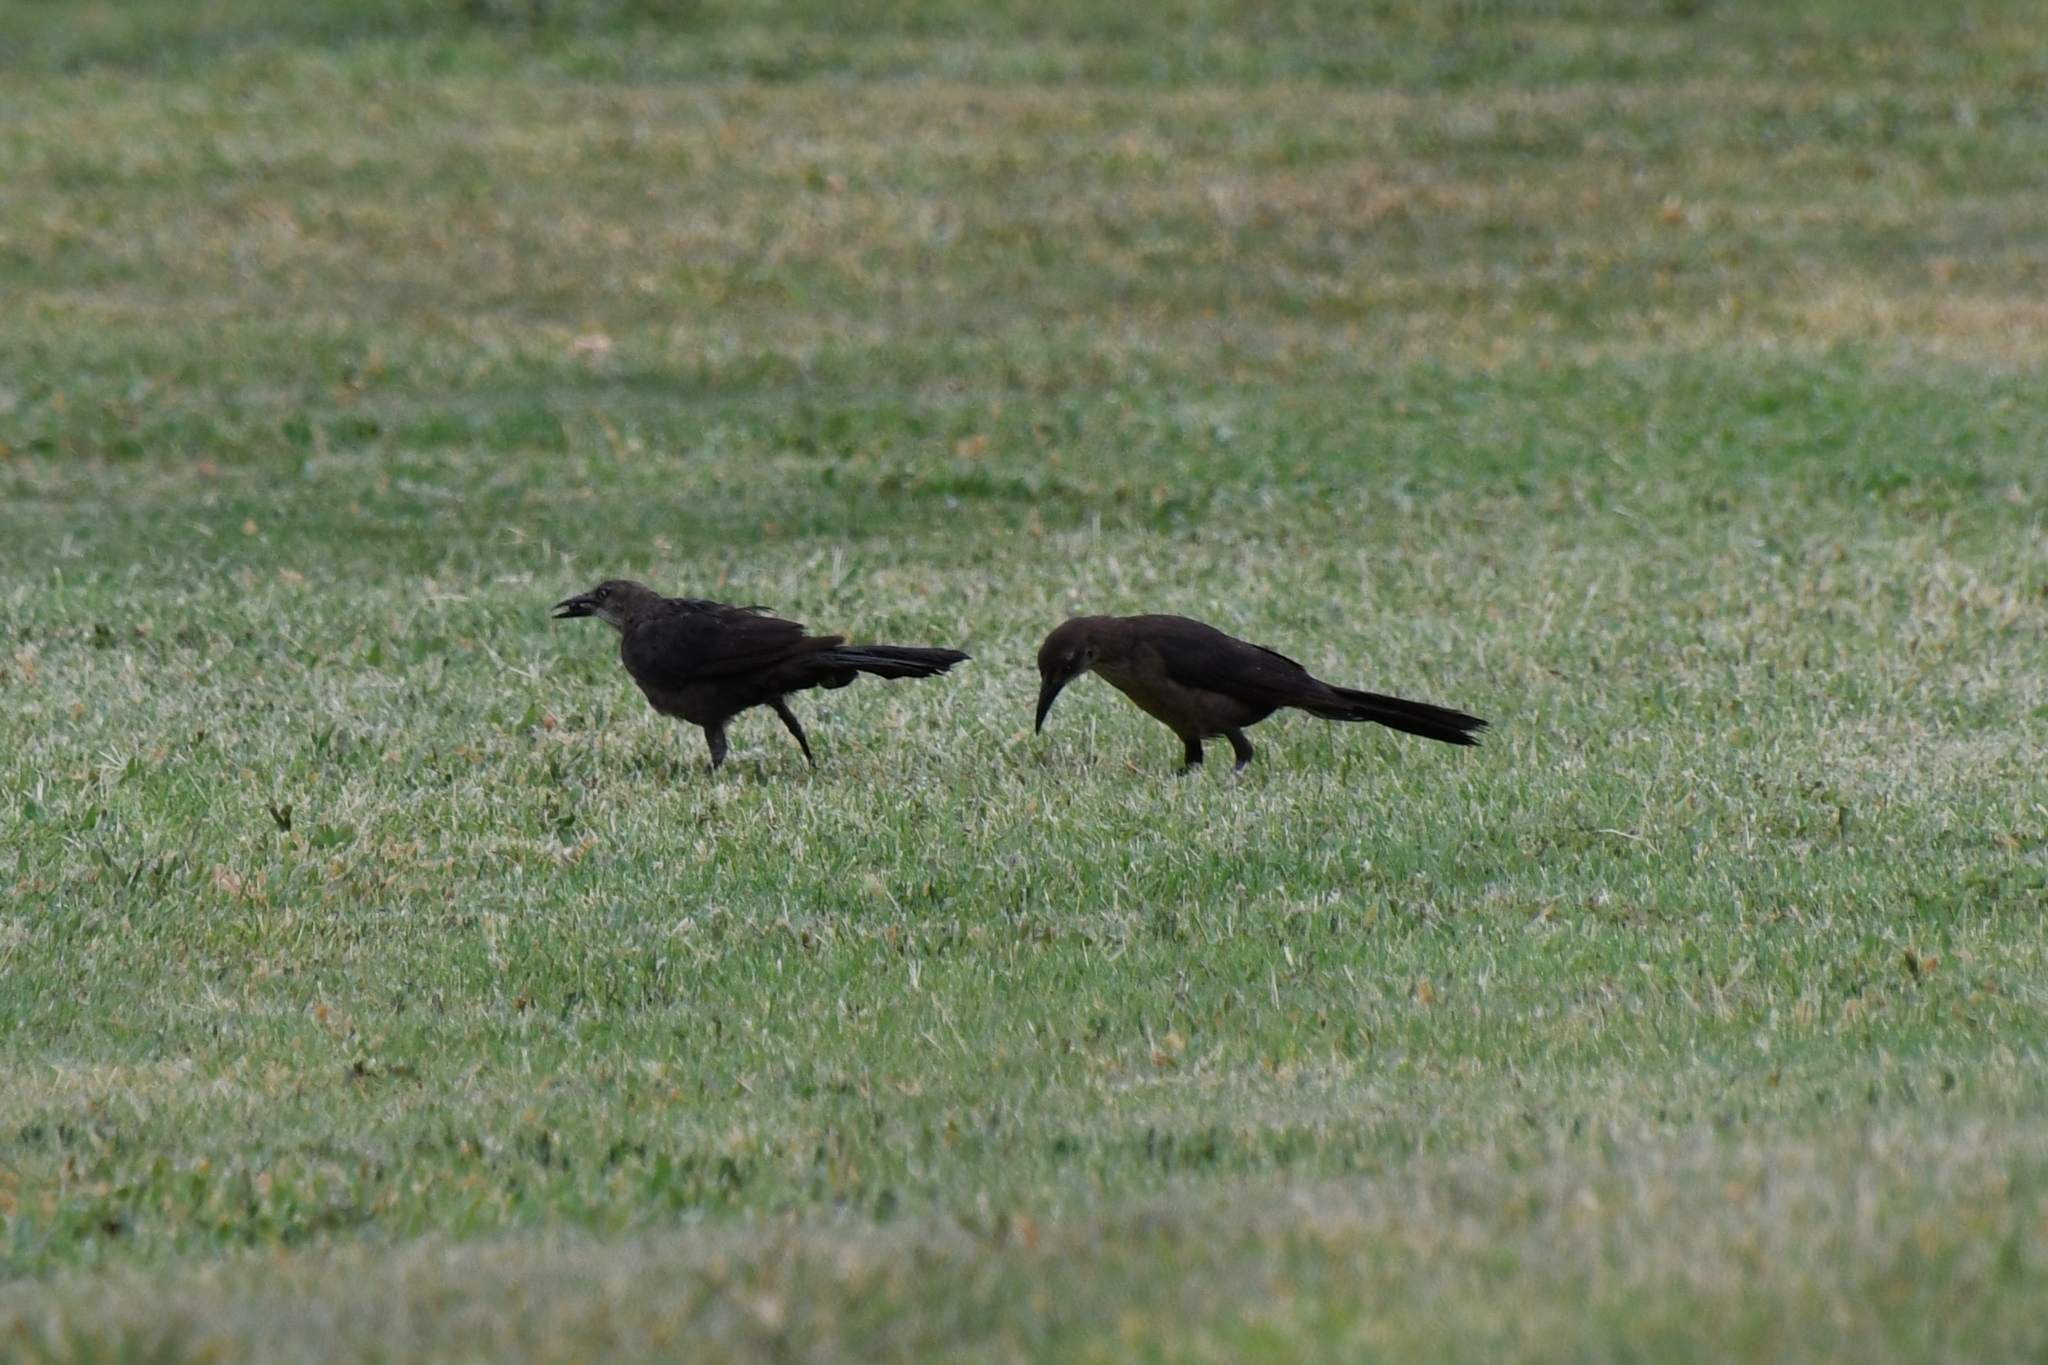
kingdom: Animalia
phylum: Chordata
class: Aves
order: Passeriformes
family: Icteridae
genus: Quiscalus
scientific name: Quiscalus mexicanus
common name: Great-tailed grackle
